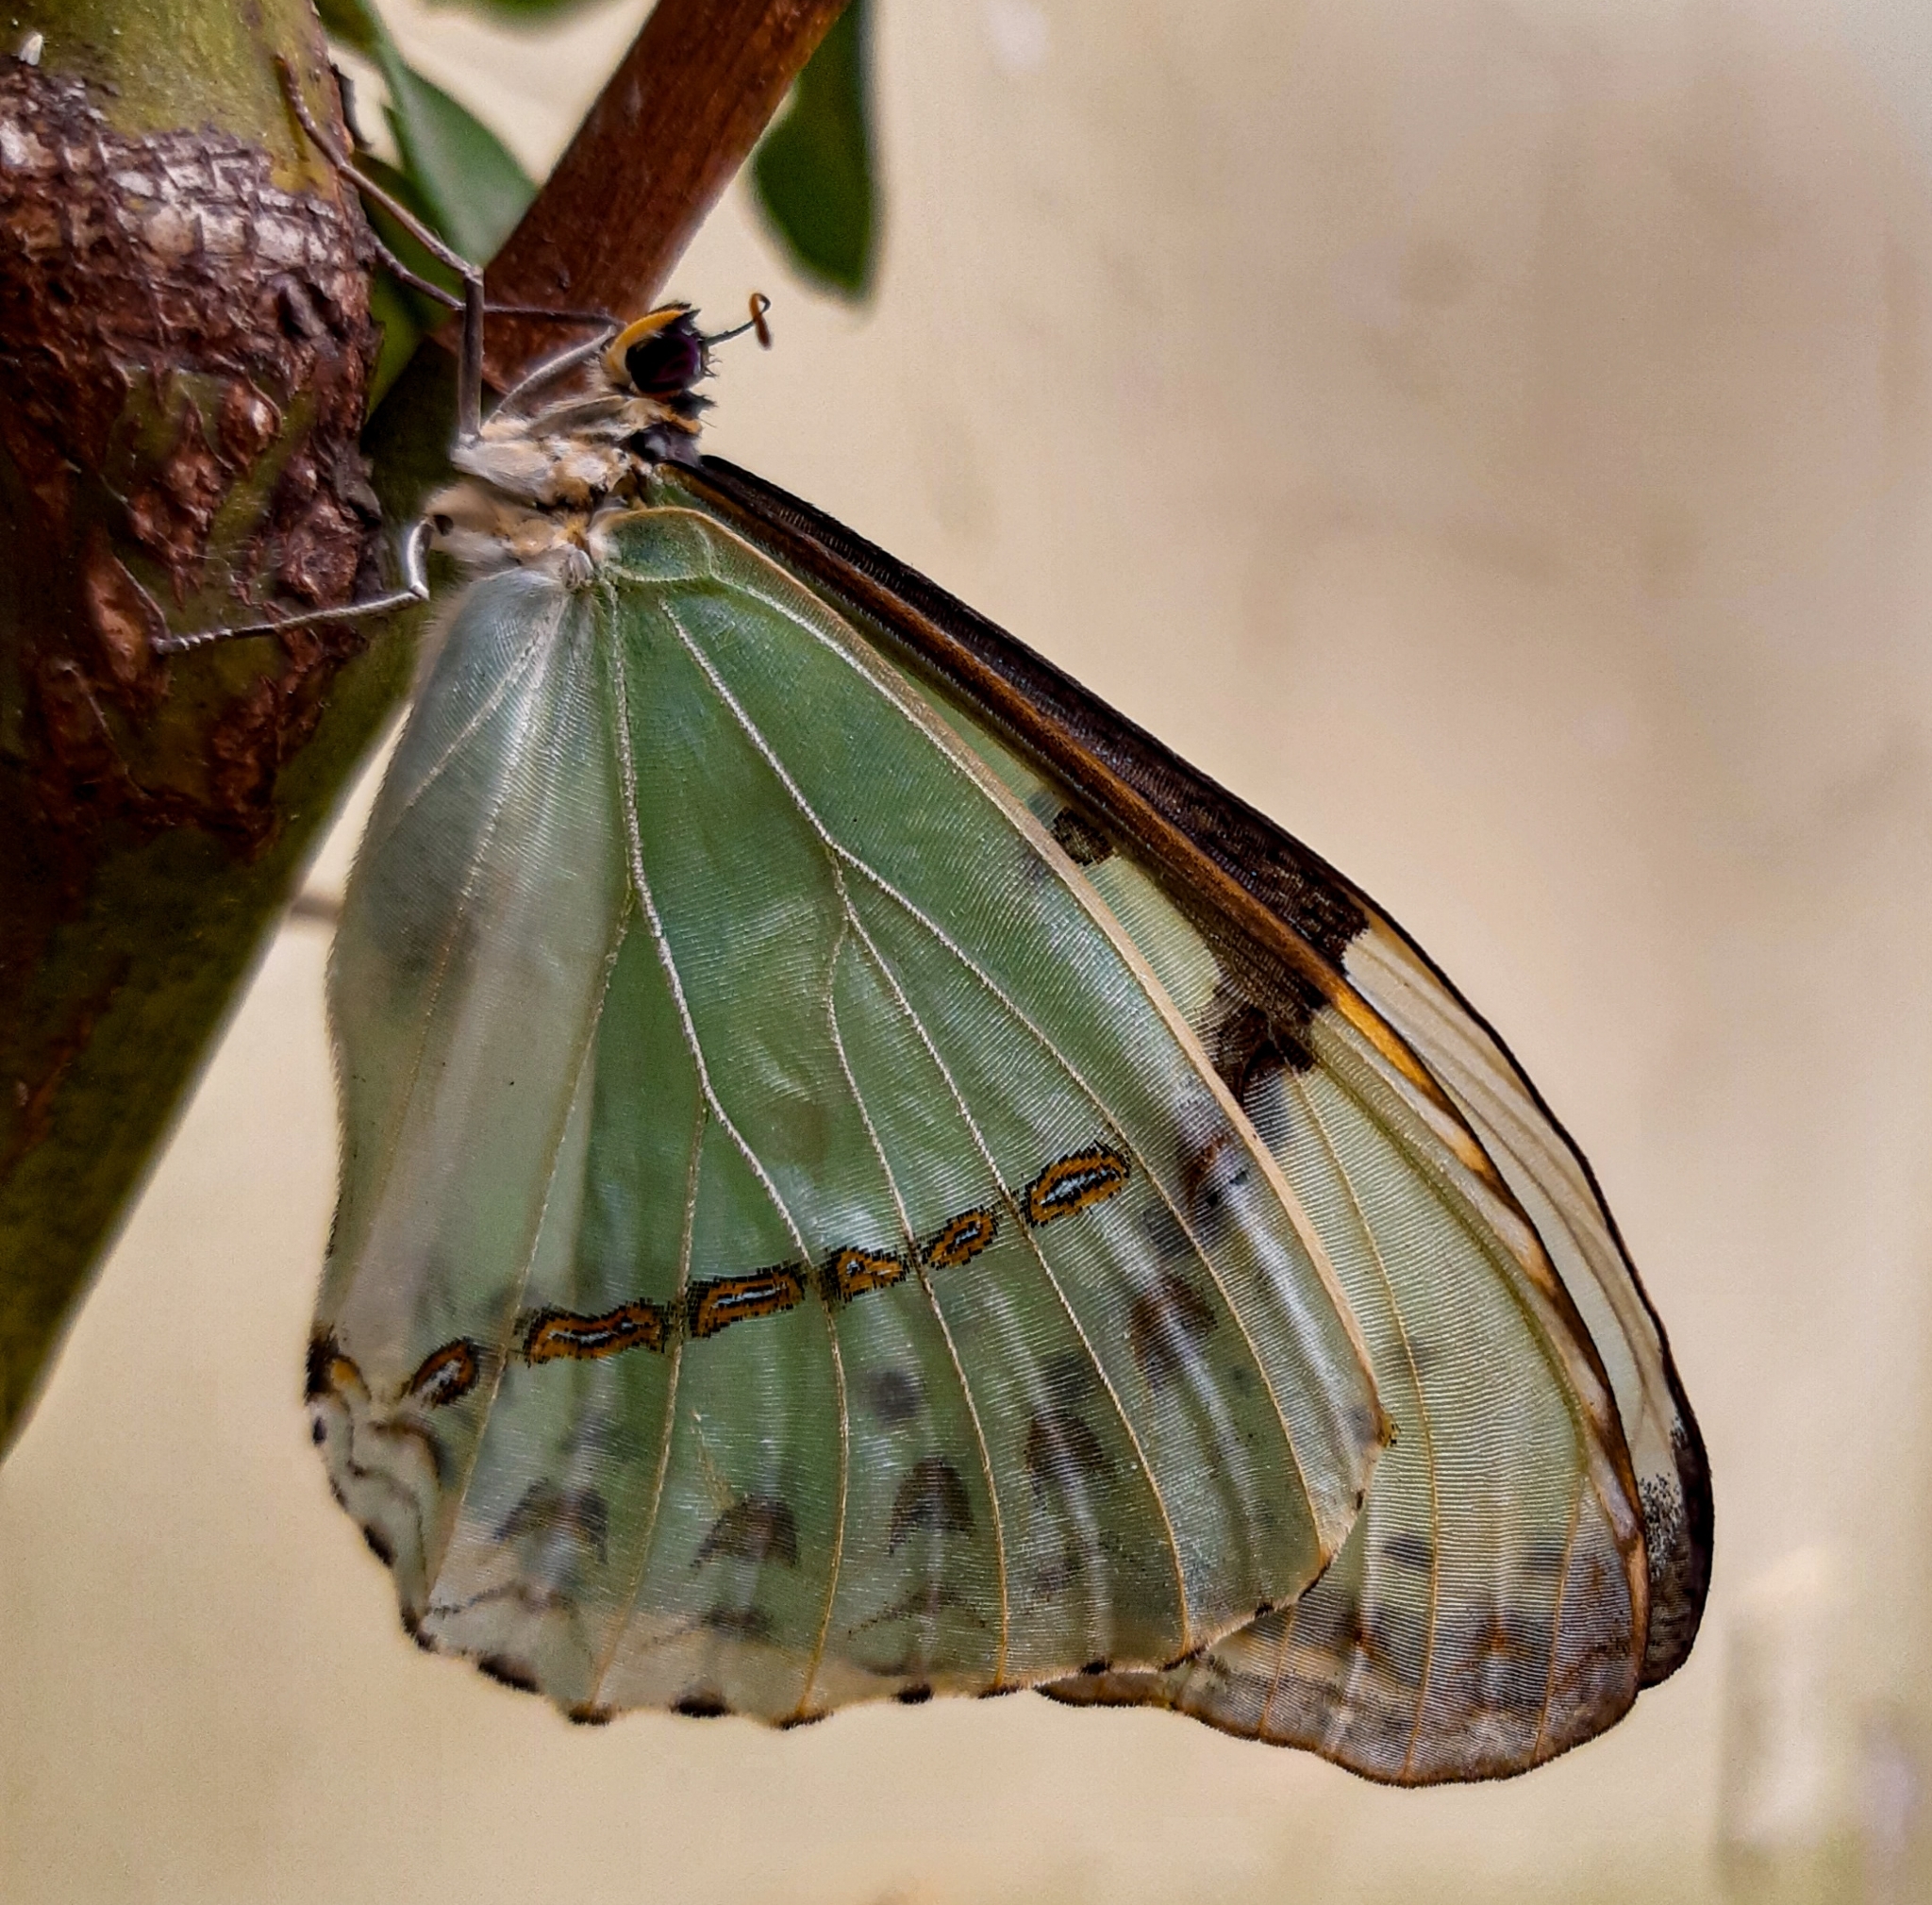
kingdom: Animalia
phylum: Arthropoda
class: Insecta
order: Lepidoptera
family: Nymphalidae
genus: Morpho
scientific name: Morpho epistrophus
